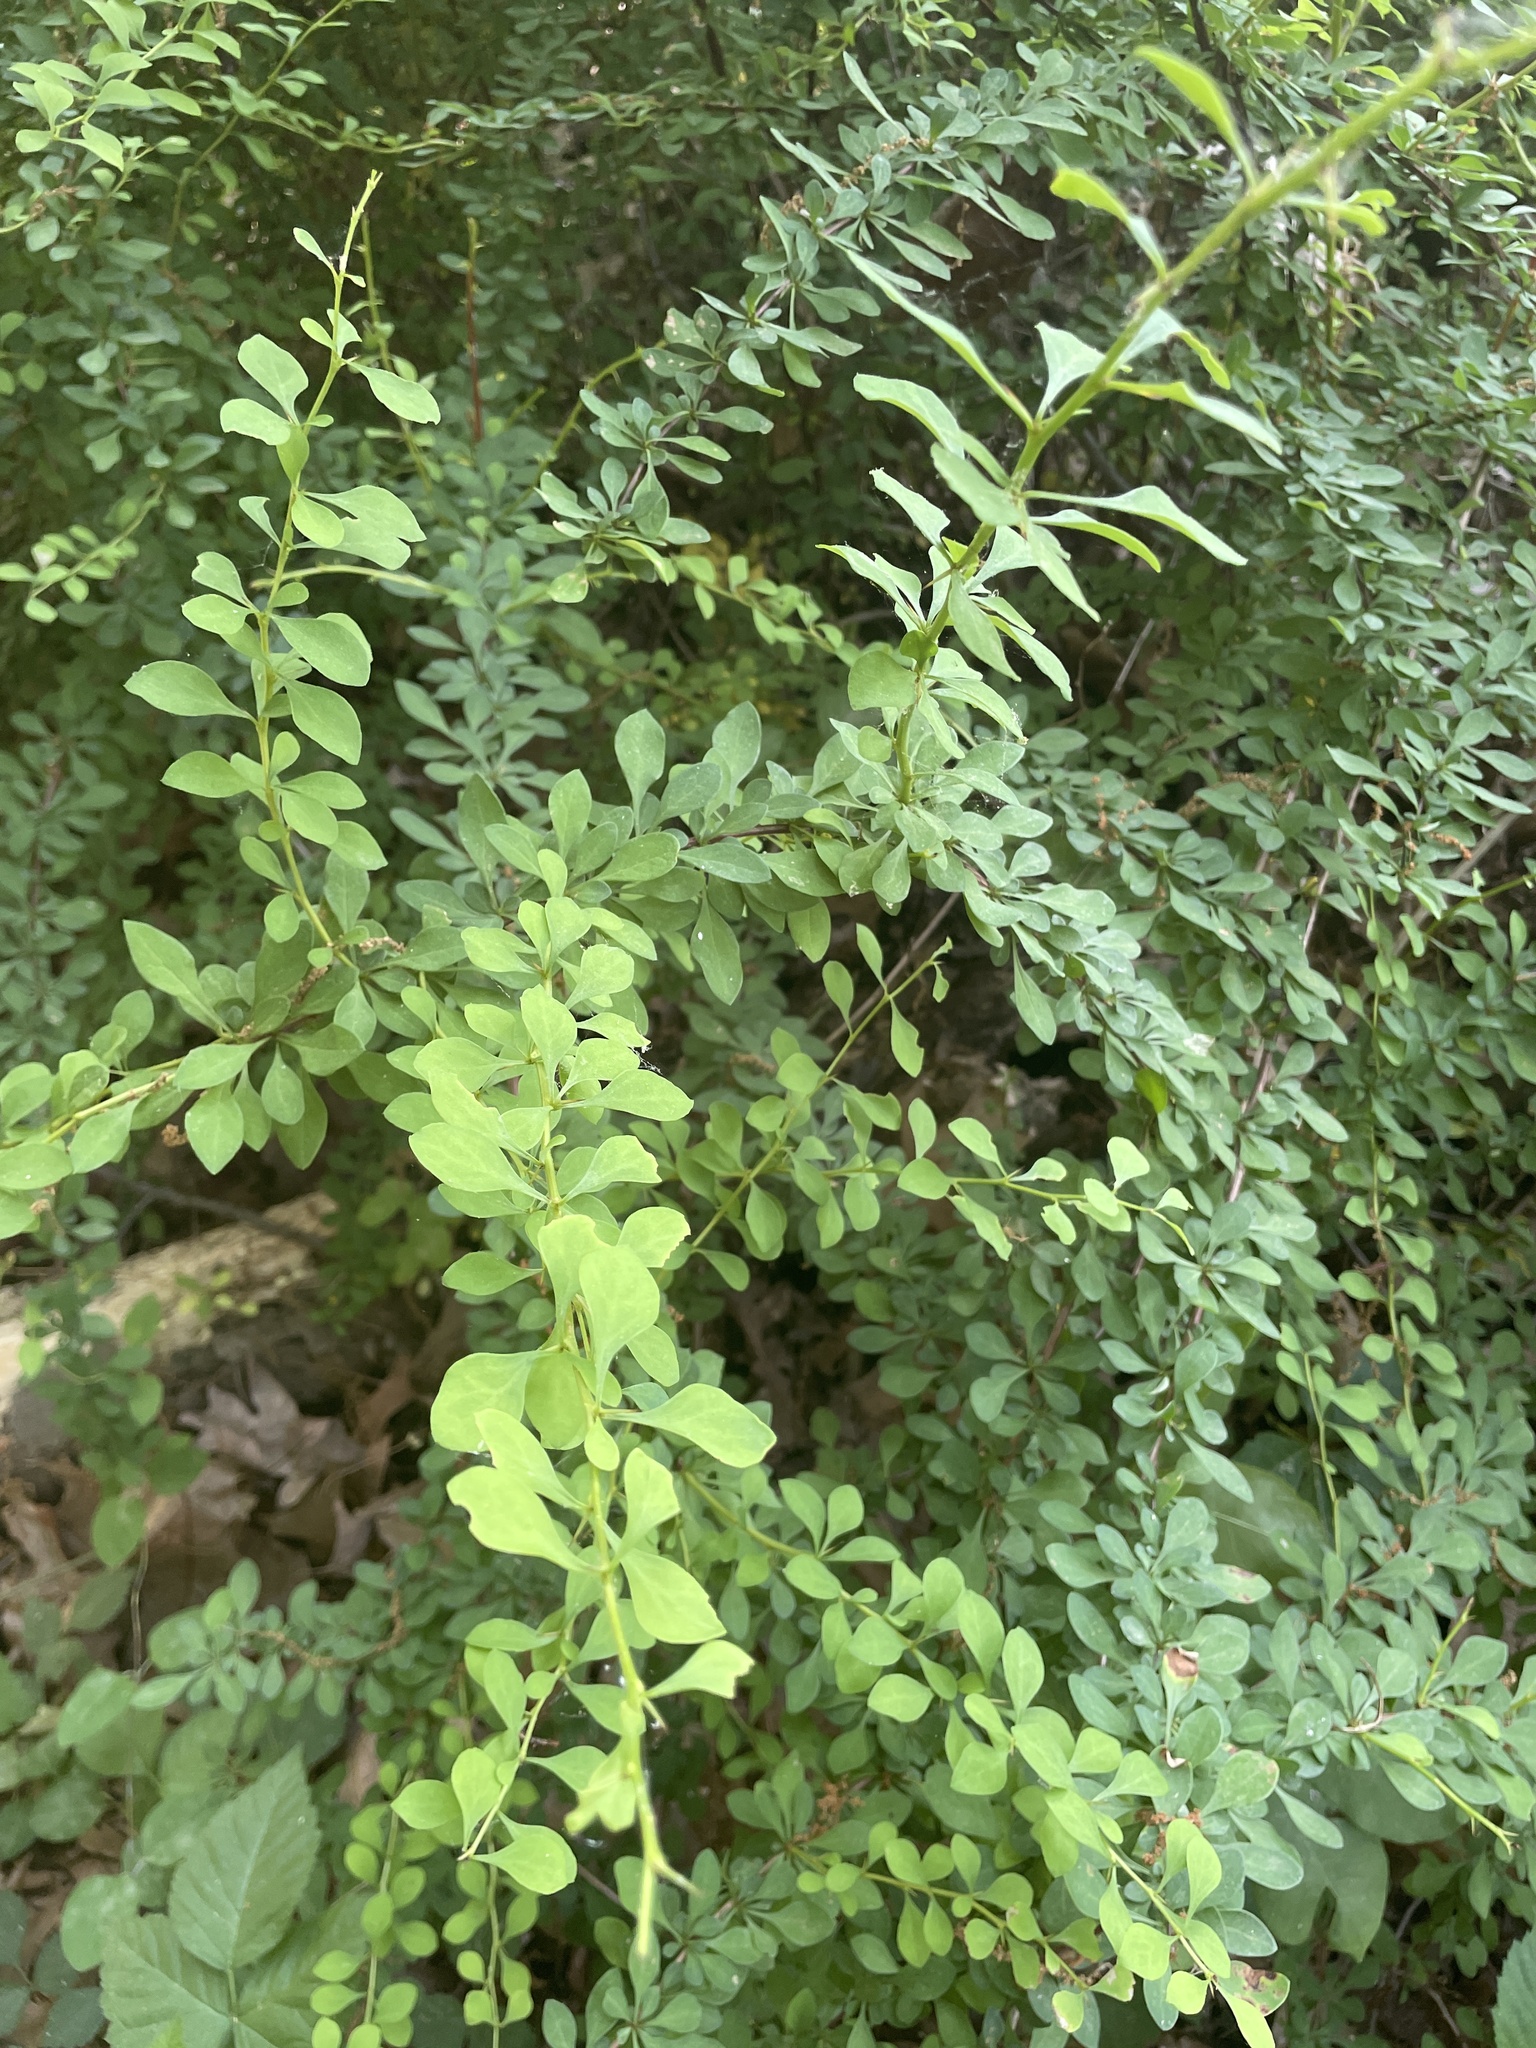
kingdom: Plantae
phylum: Tracheophyta
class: Magnoliopsida
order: Ranunculales
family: Berberidaceae
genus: Berberis
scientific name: Berberis thunbergii
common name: Japanese barberry
